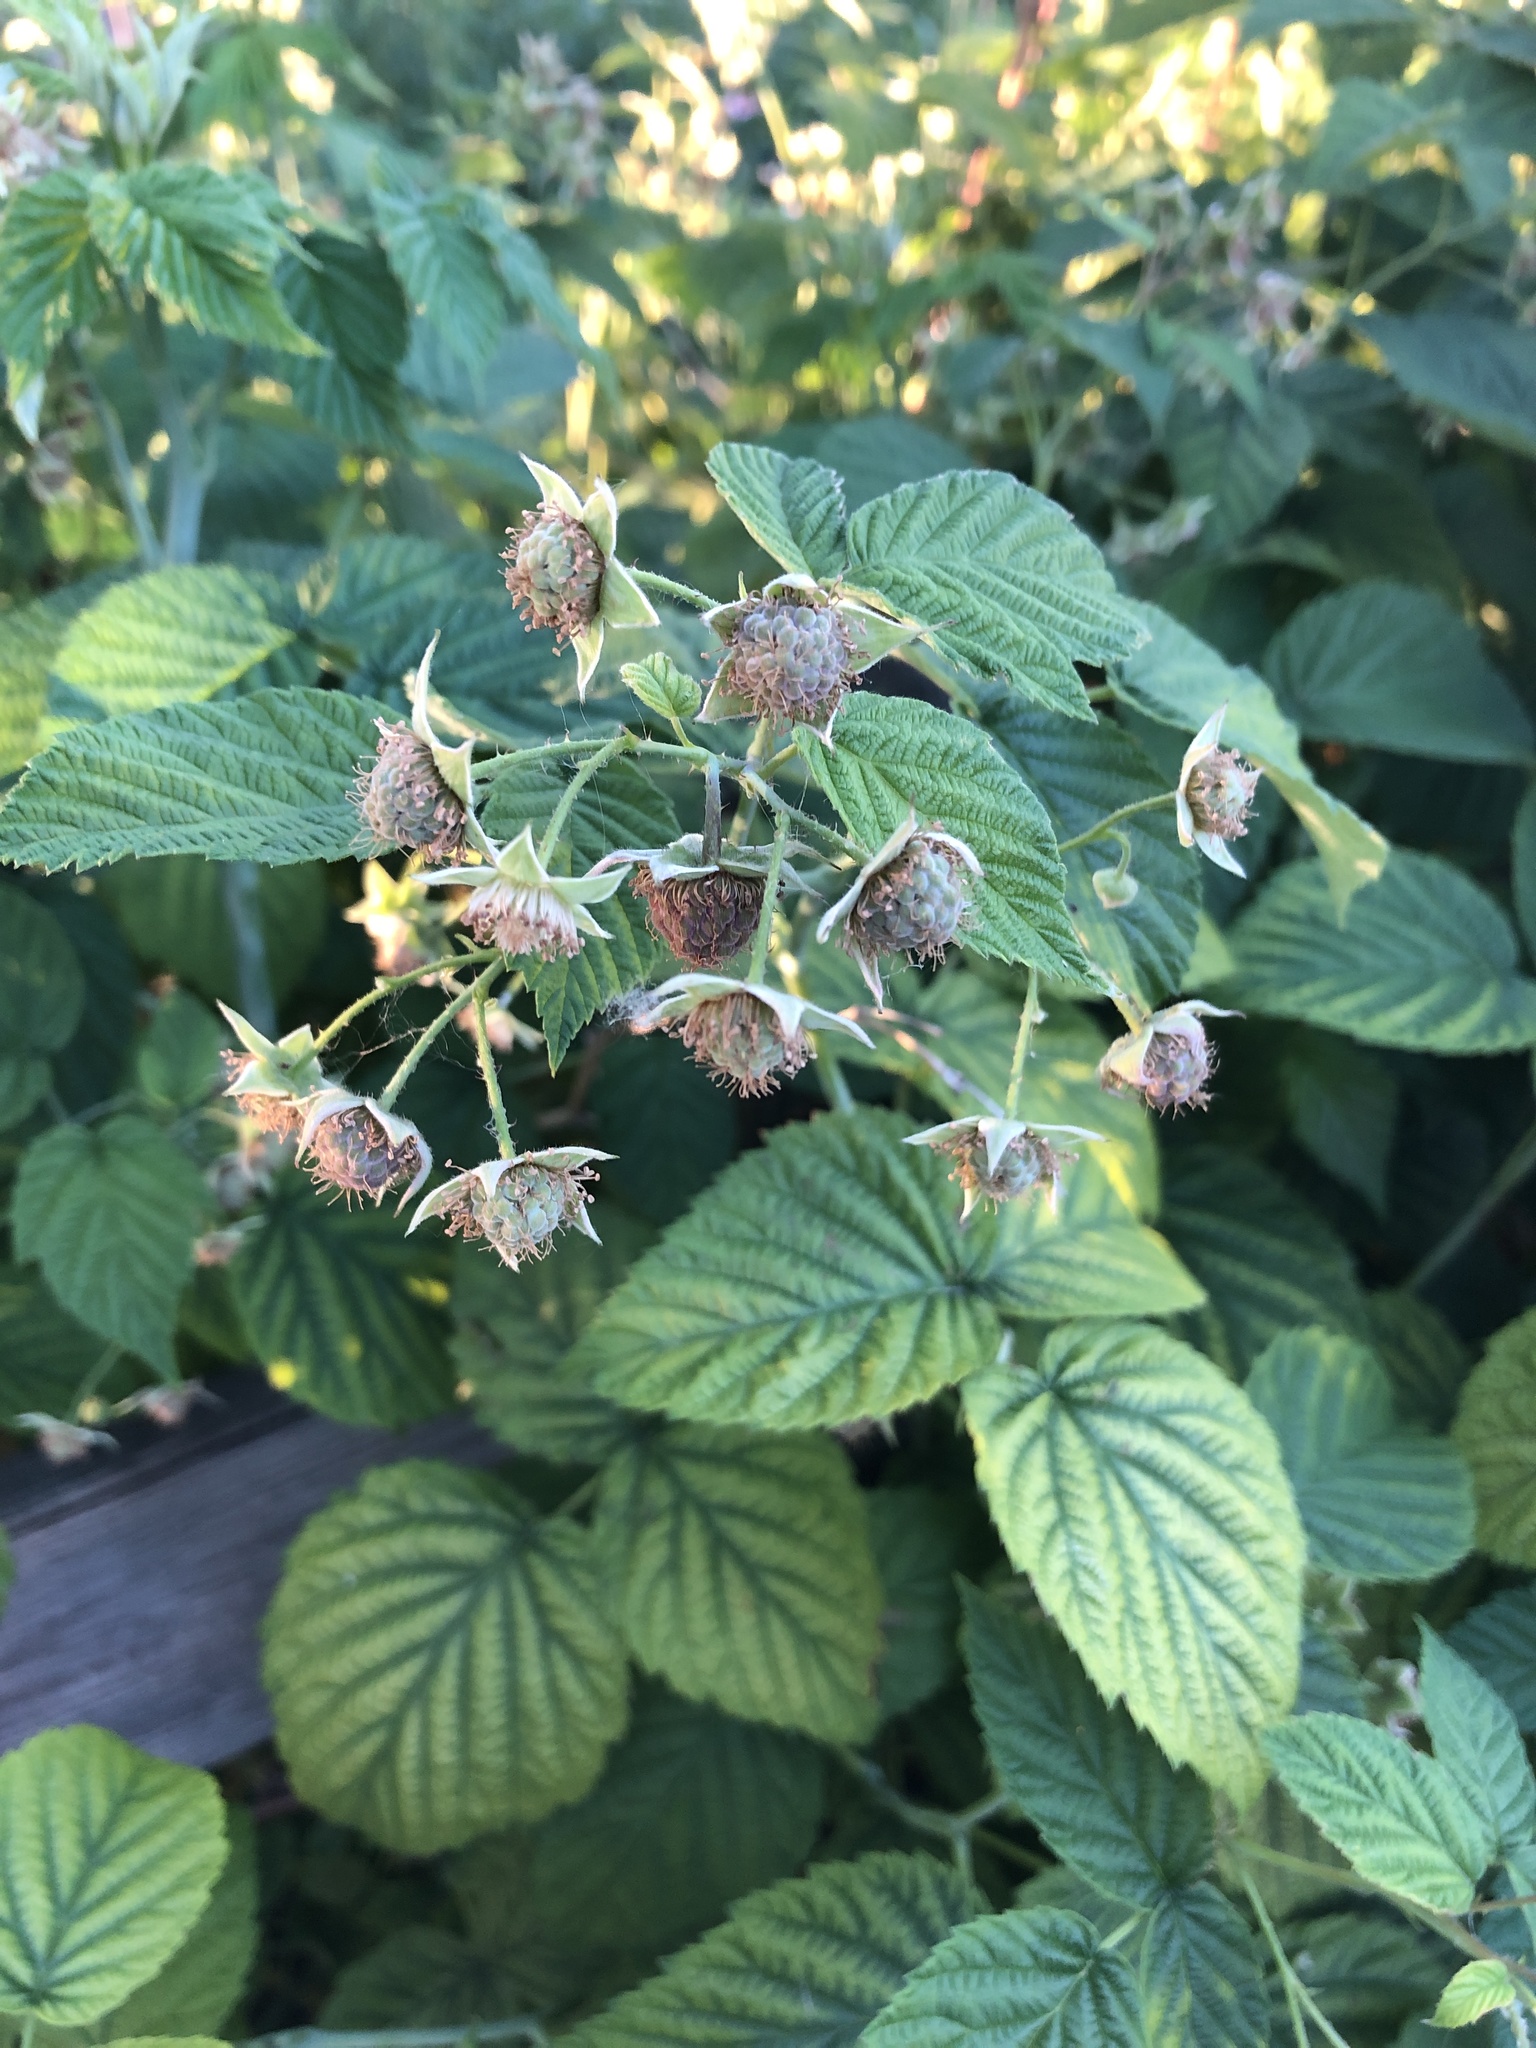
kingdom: Plantae
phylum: Tracheophyta
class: Magnoliopsida
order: Rosales
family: Rosaceae
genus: Rubus
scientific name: Rubus occidentalis
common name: Black raspberry
